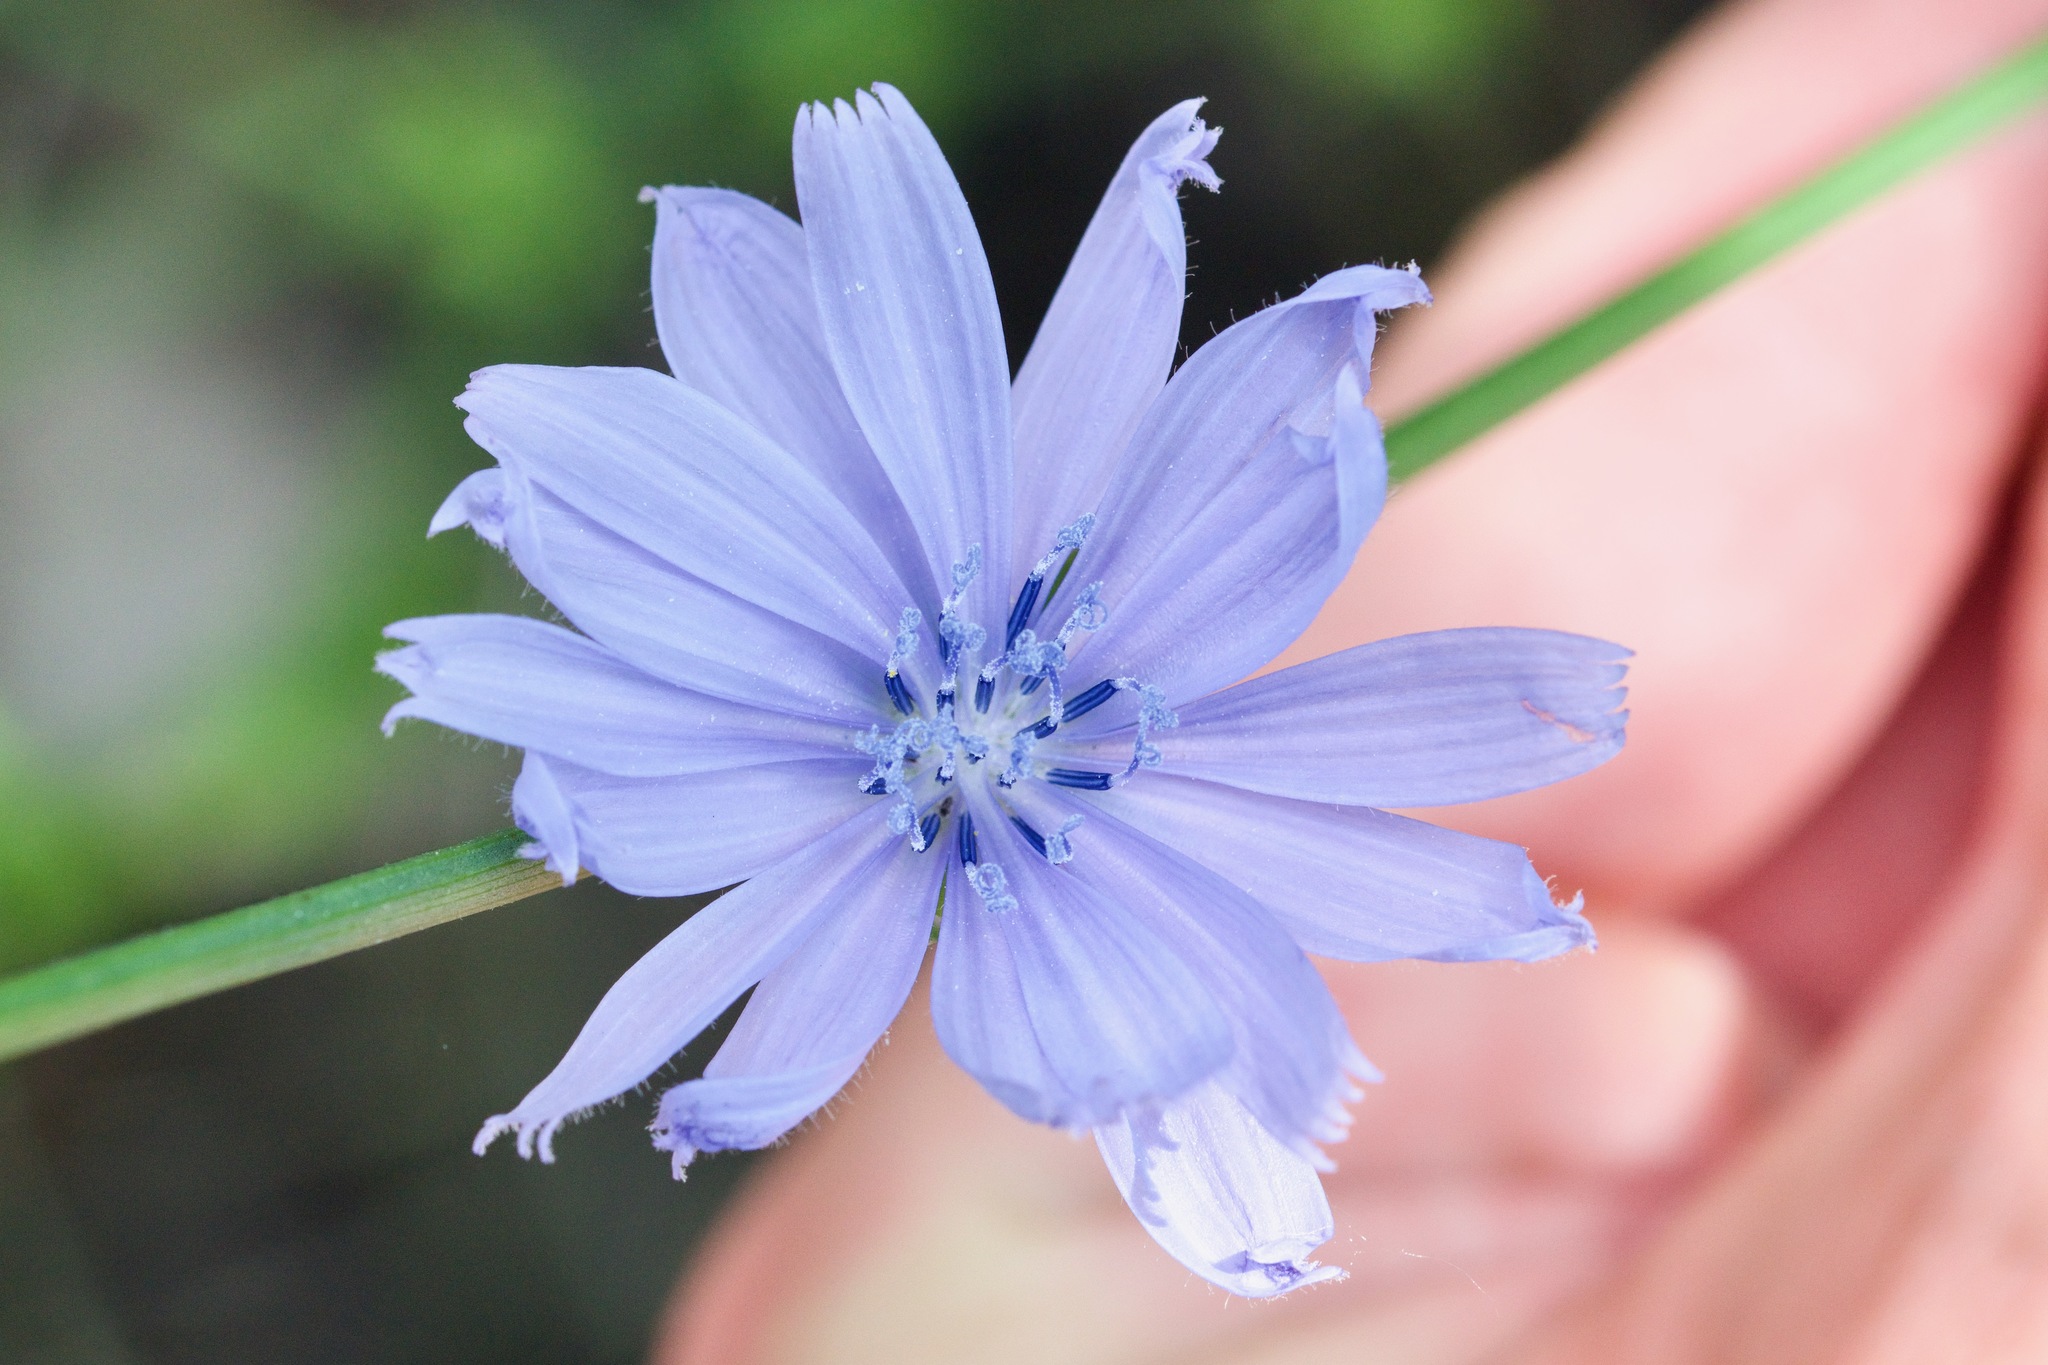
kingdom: Plantae
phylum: Tracheophyta
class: Magnoliopsida
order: Asterales
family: Asteraceae
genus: Cichorium
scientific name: Cichorium intybus
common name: Chicory
